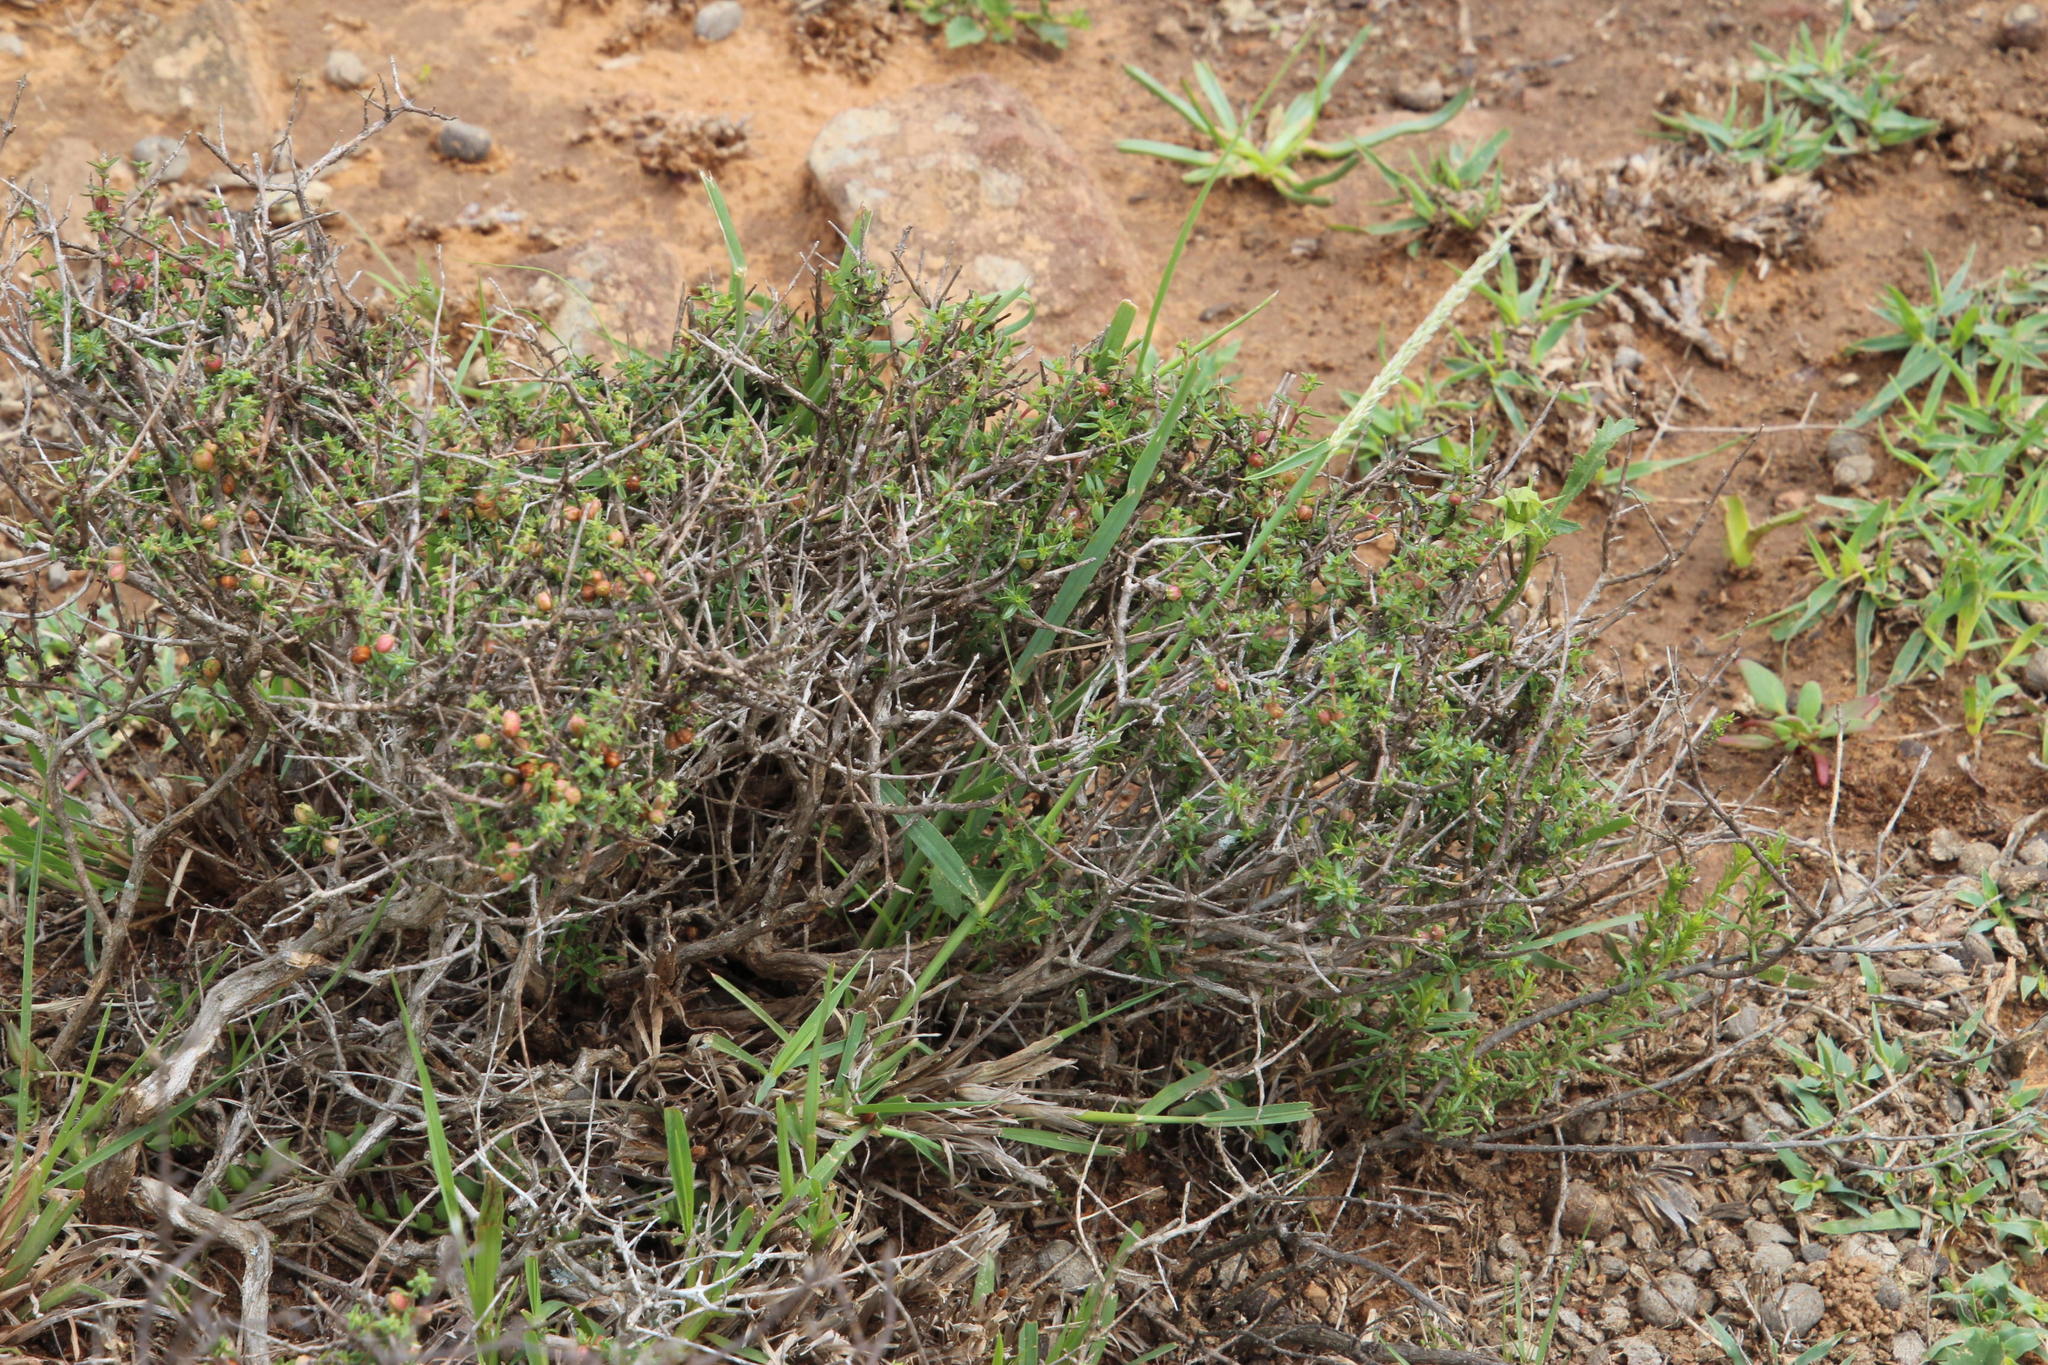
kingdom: Plantae
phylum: Tracheophyta
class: Liliopsida
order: Poales
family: Poaceae
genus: Digitaria
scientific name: Digitaria argyrograpta
